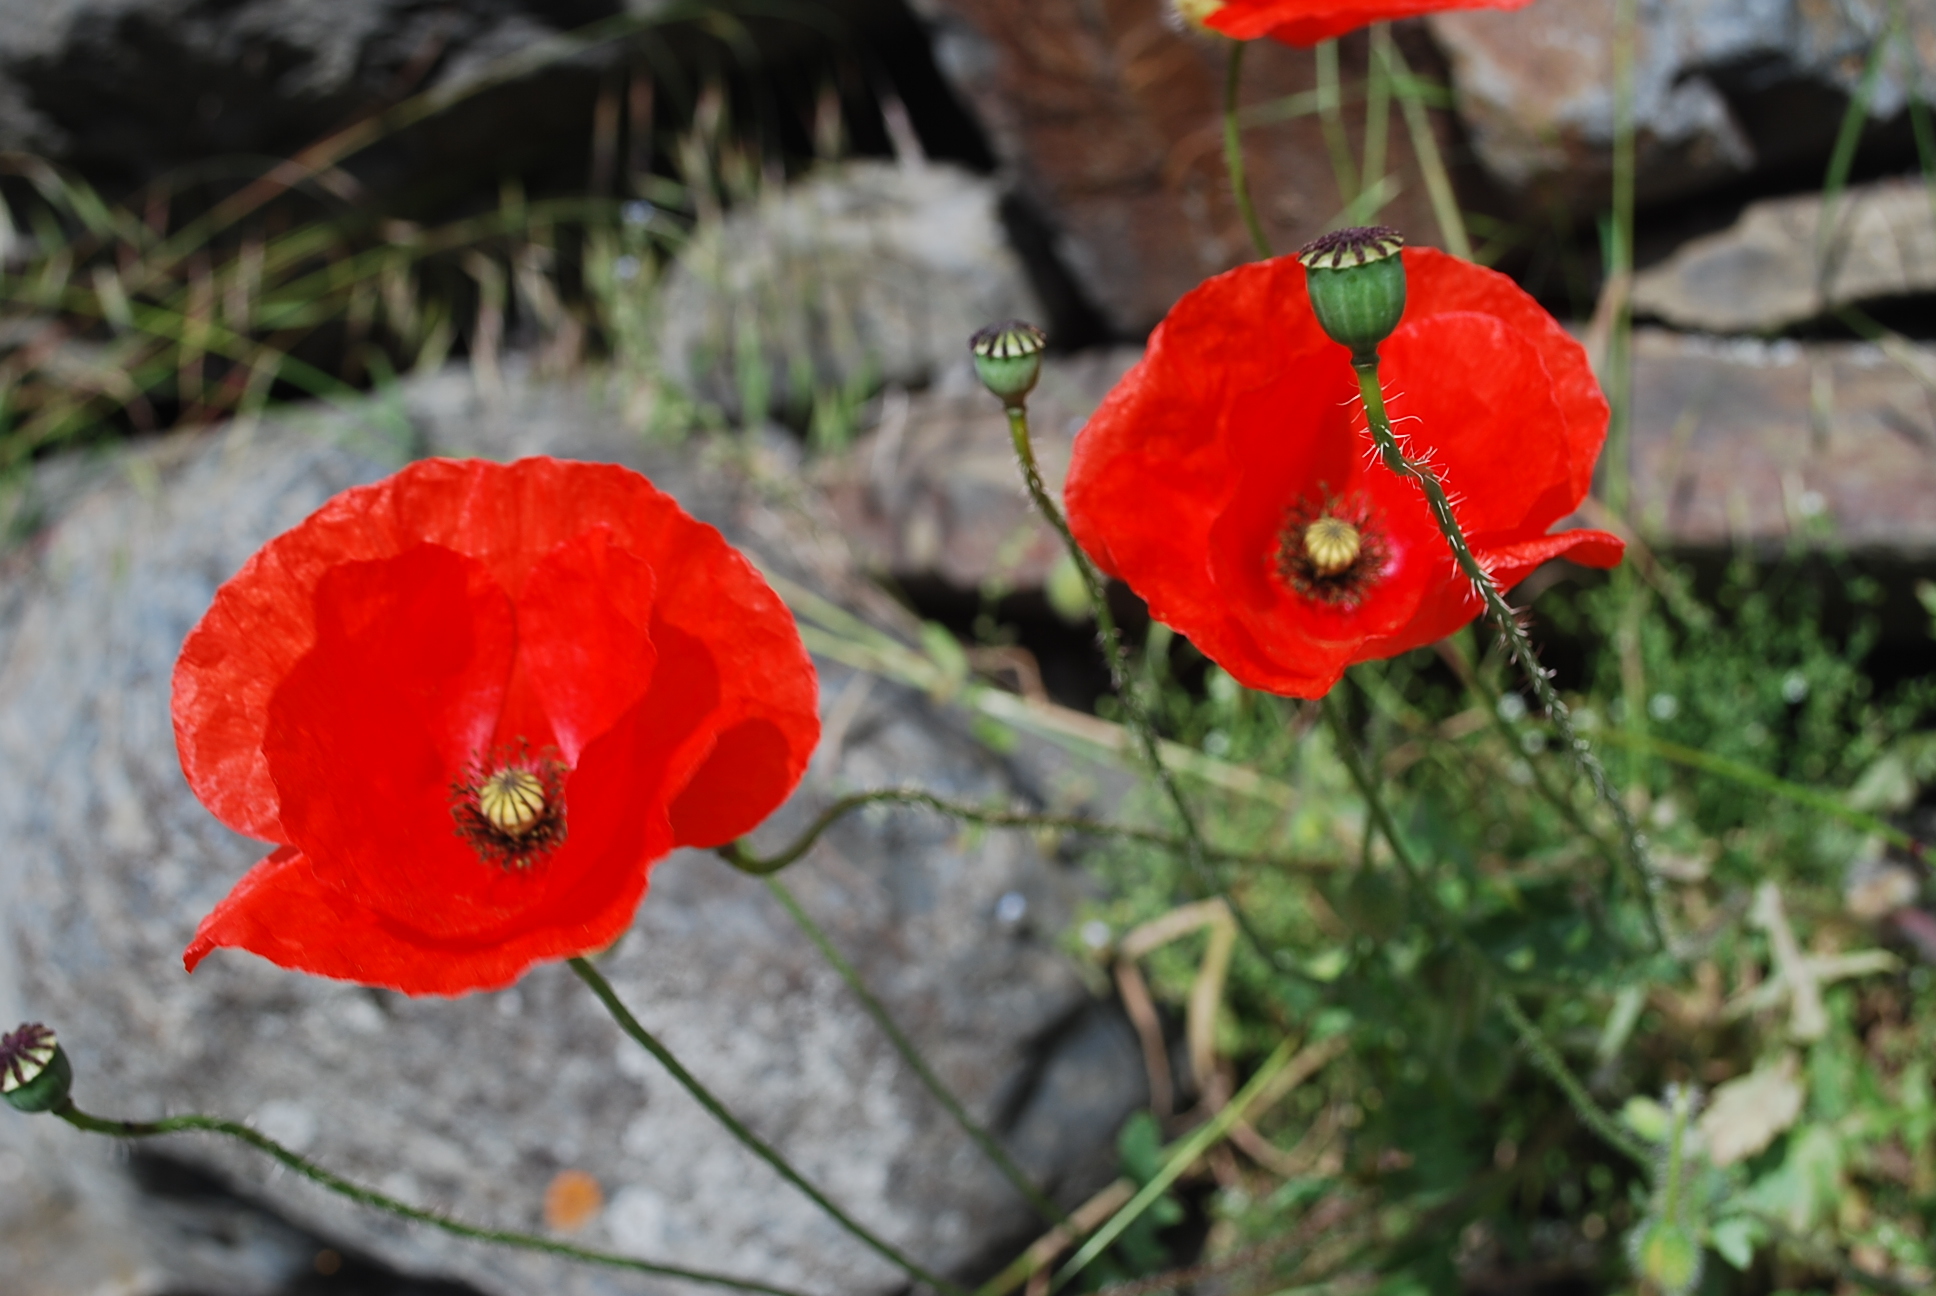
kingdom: Plantae
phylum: Tracheophyta
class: Magnoliopsida
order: Ranunculales
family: Papaveraceae
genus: Papaver
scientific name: Papaver rhoeas
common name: Corn poppy
